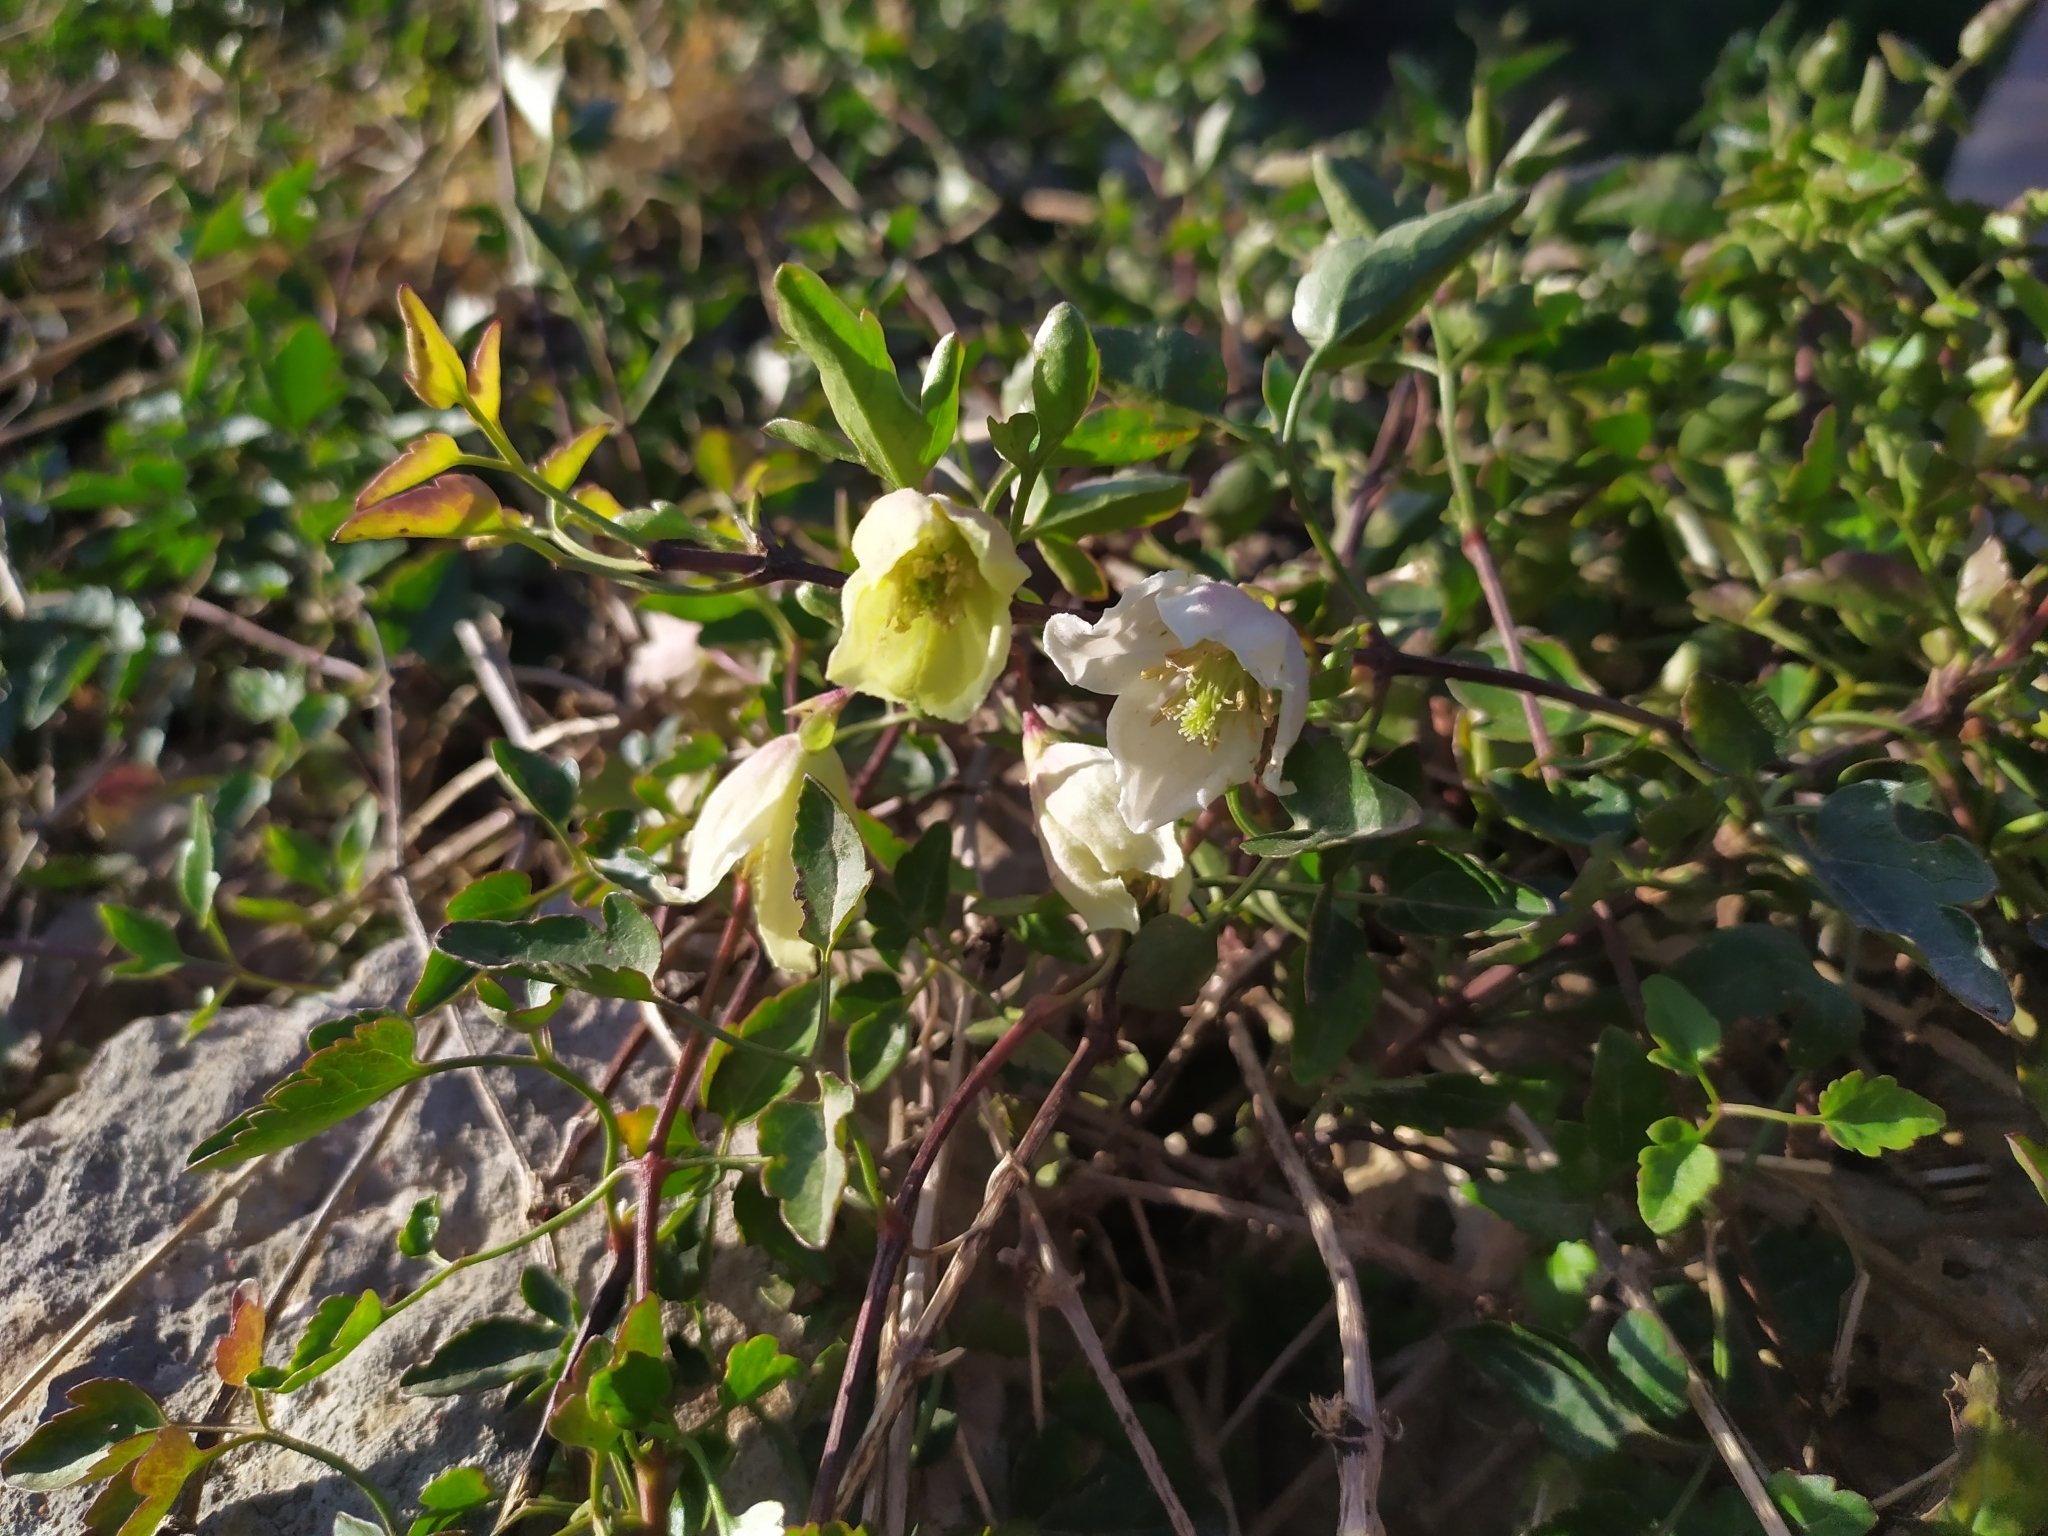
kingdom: Plantae
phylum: Tracheophyta
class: Magnoliopsida
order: Ranunculales
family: Ranunculaceae
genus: Clematis
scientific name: Clematis cirrhosa
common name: Early virgin's-bower
